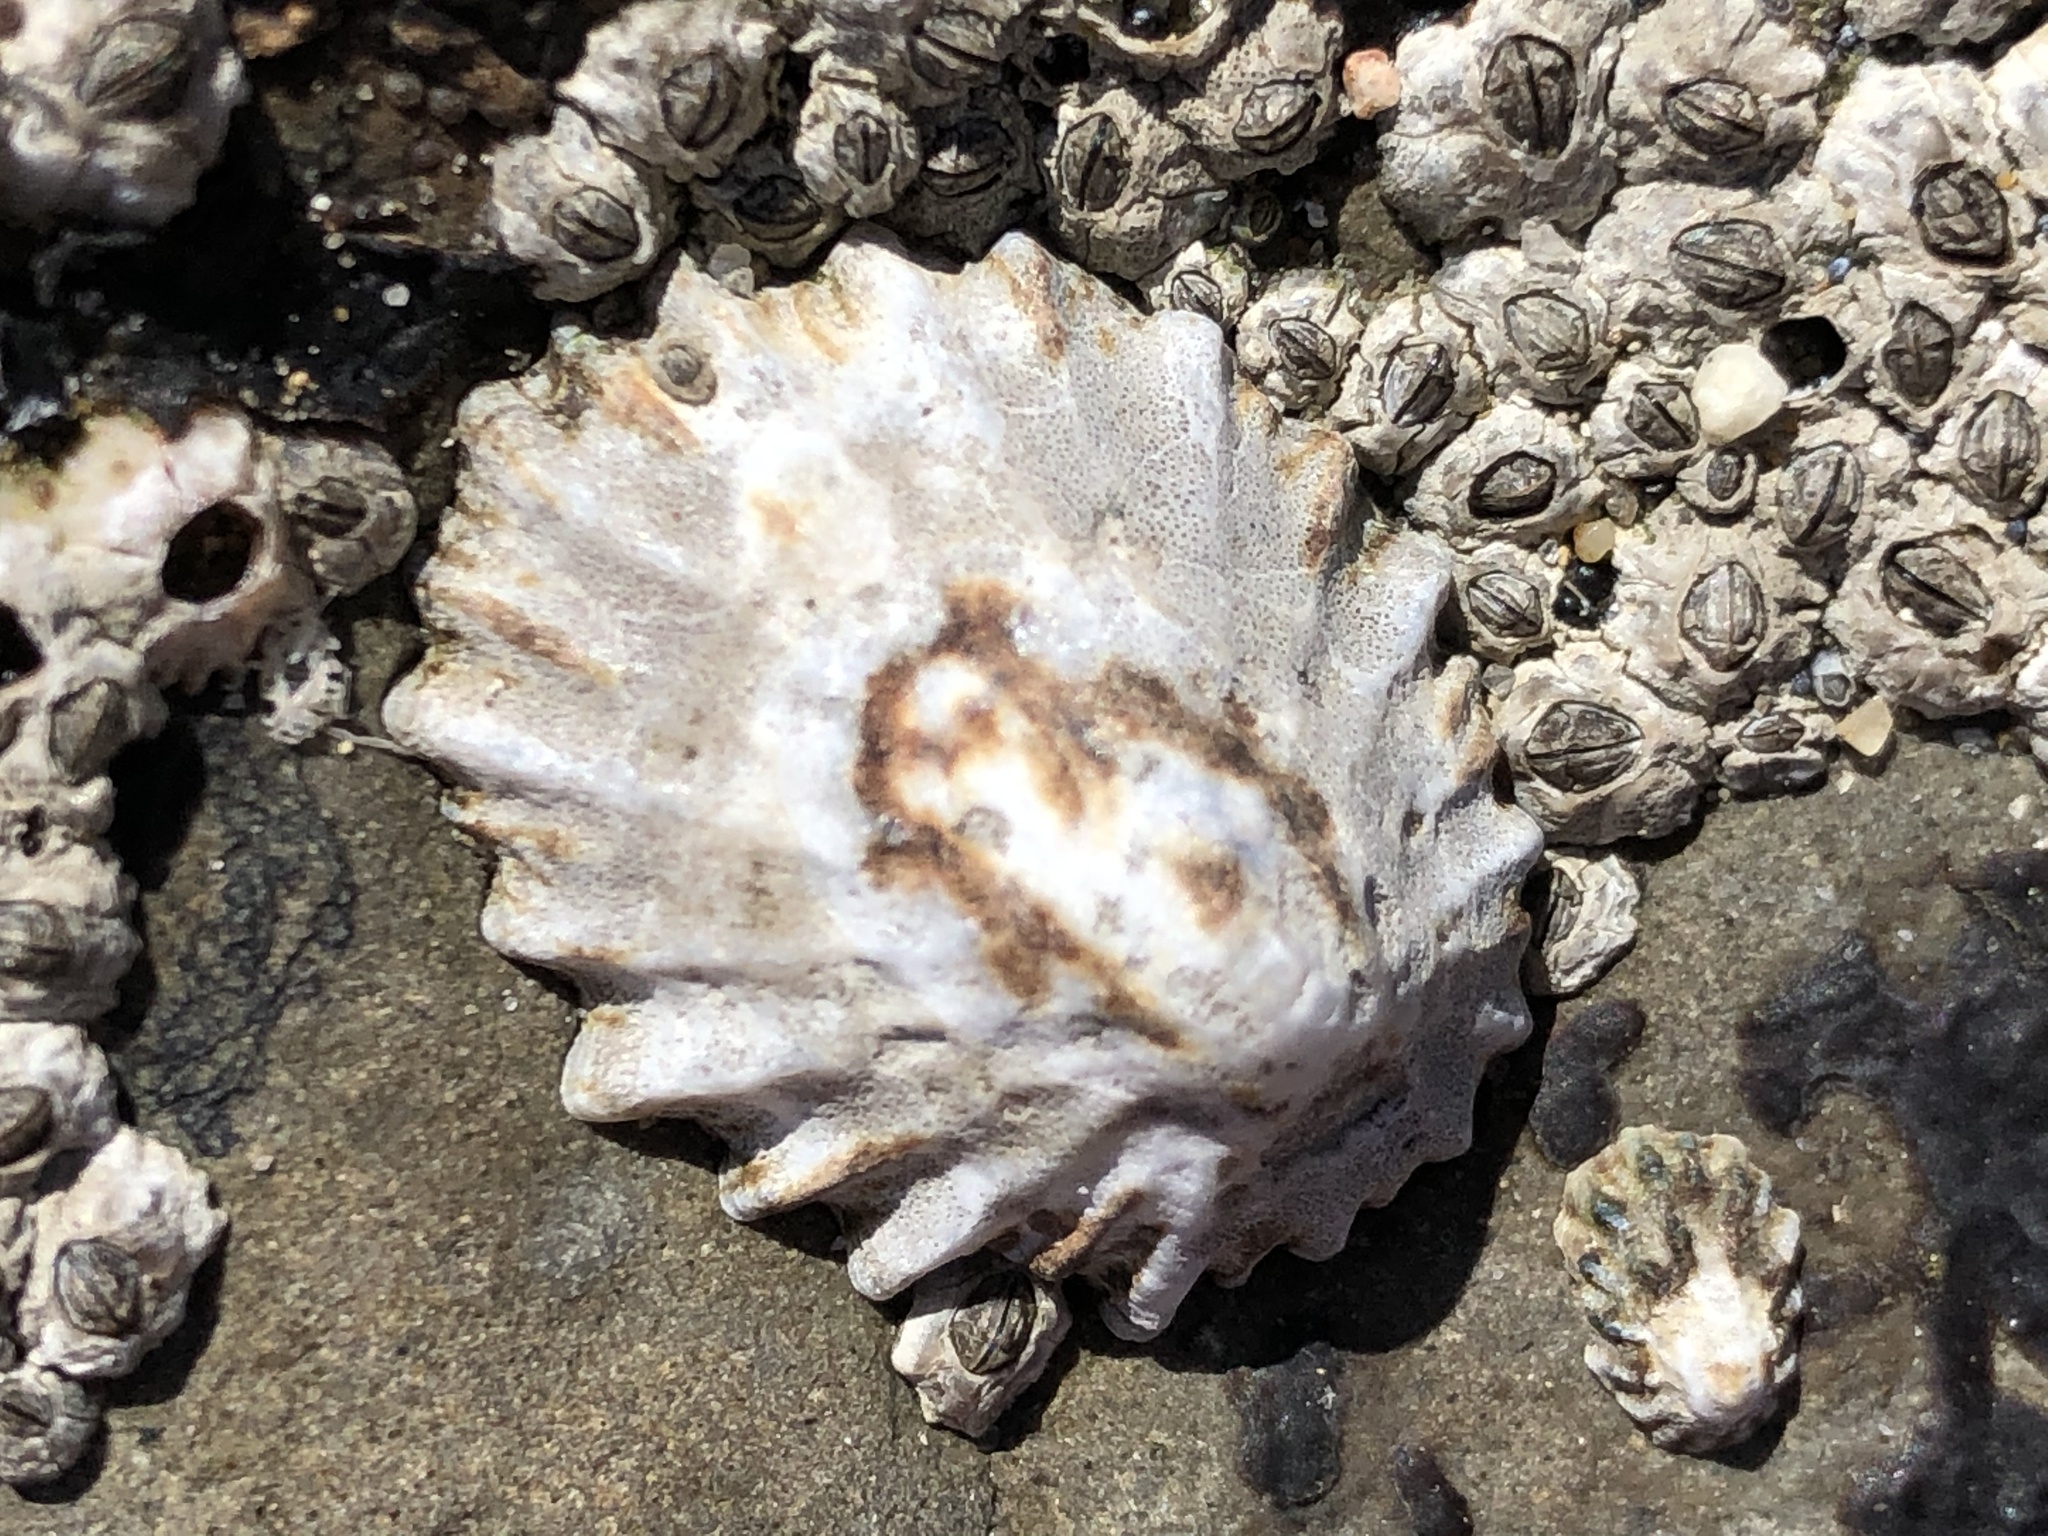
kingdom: Animalia
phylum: Mollusca
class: Gastropoda
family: Lottiidae
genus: Lottia
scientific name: Lottia scabra
